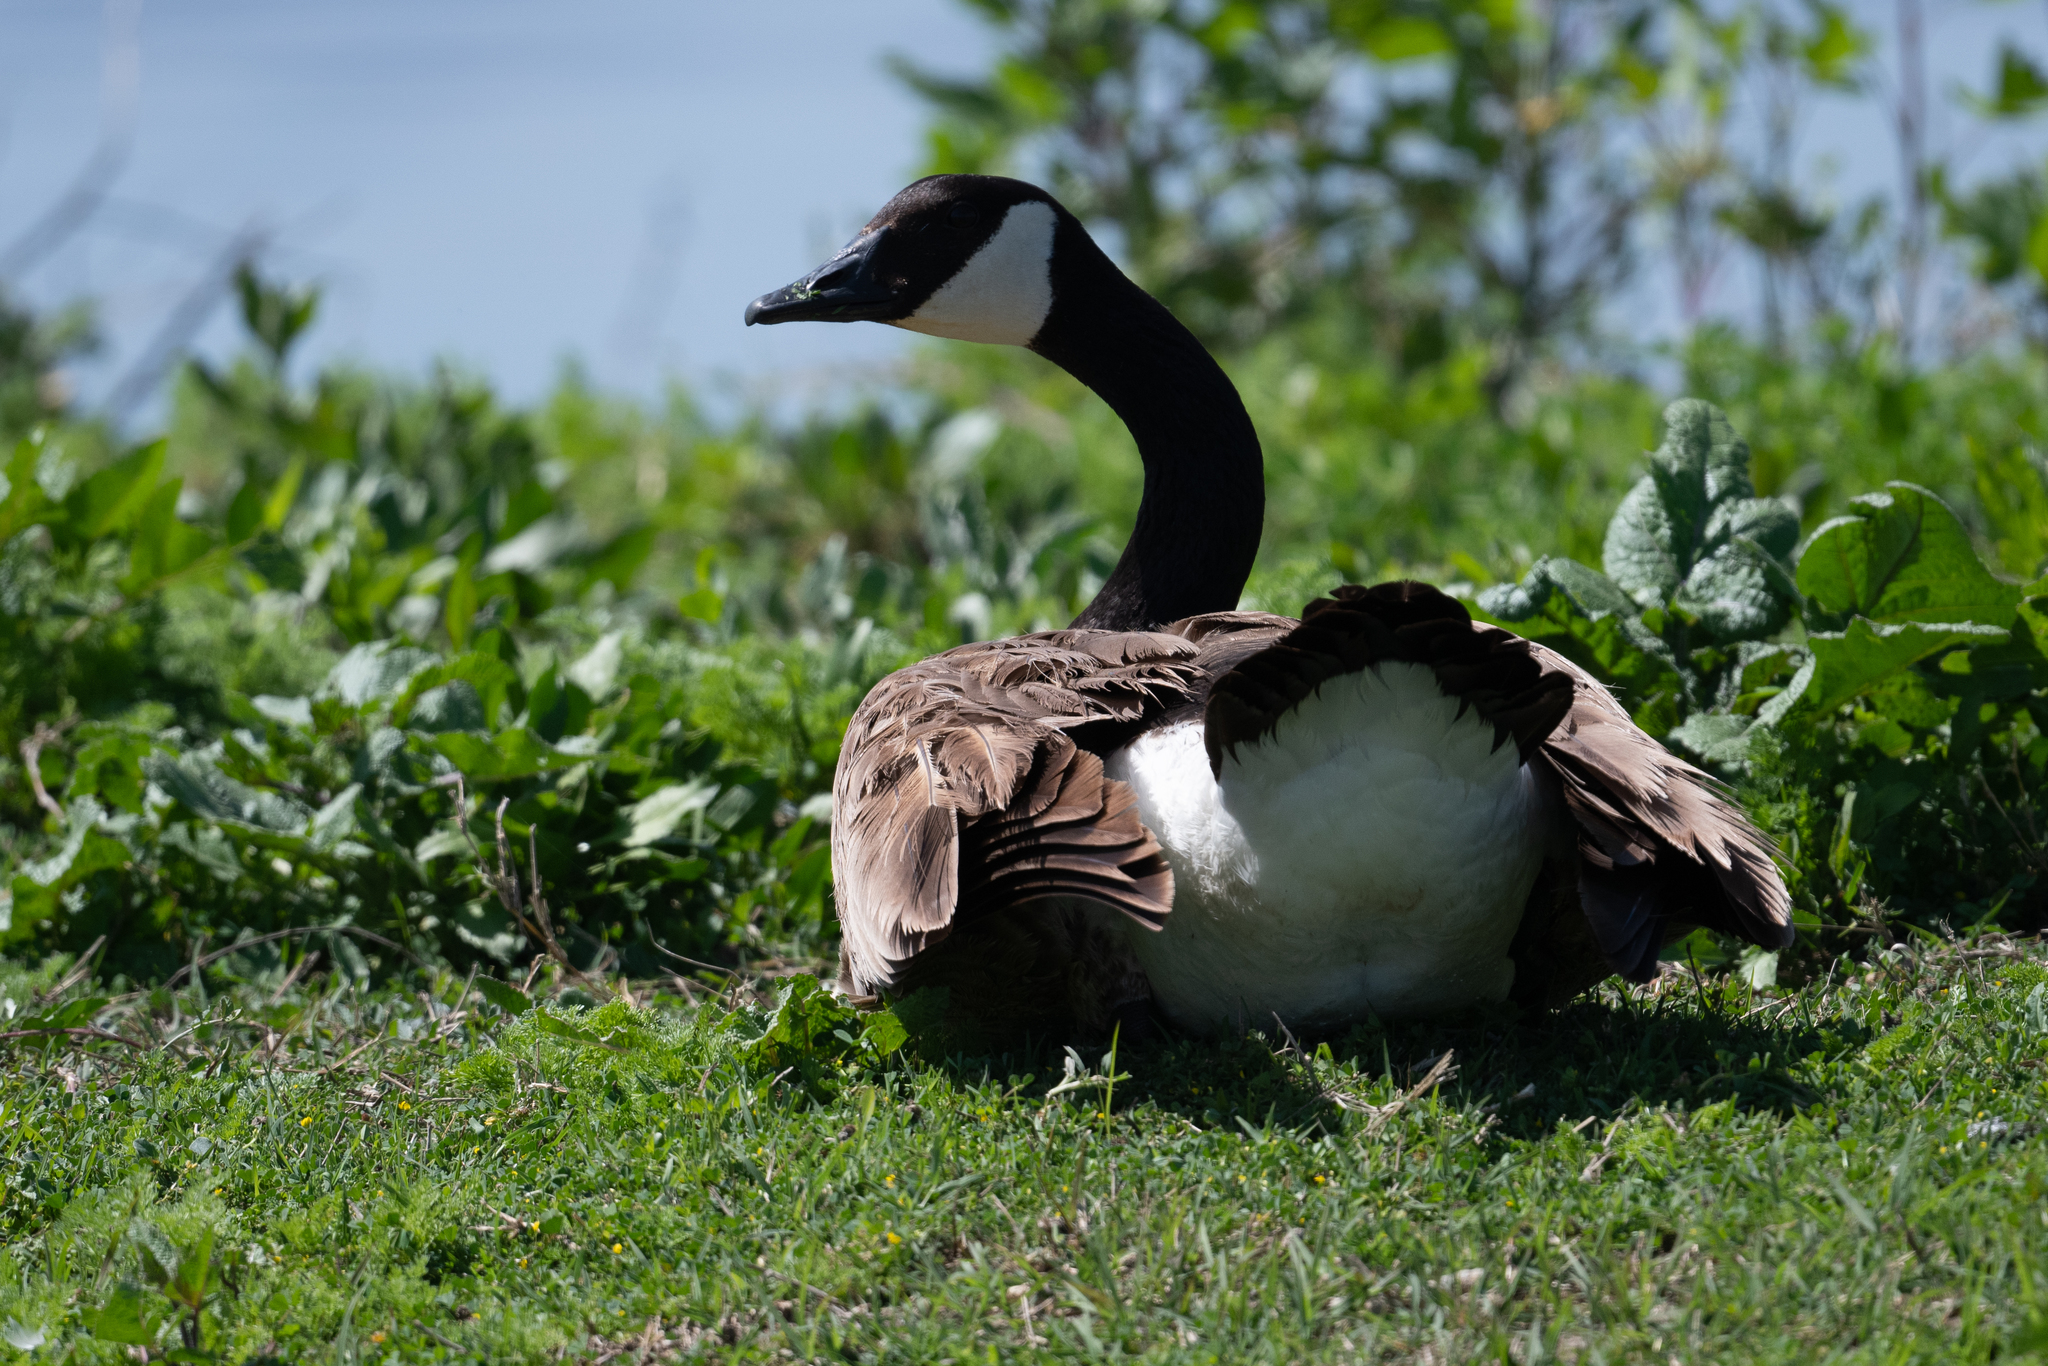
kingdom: Animalia
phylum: Chordata
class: Aves
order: Anseriformes
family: Anatidae
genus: Branta
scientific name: Branta canadensis
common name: Canada goose
